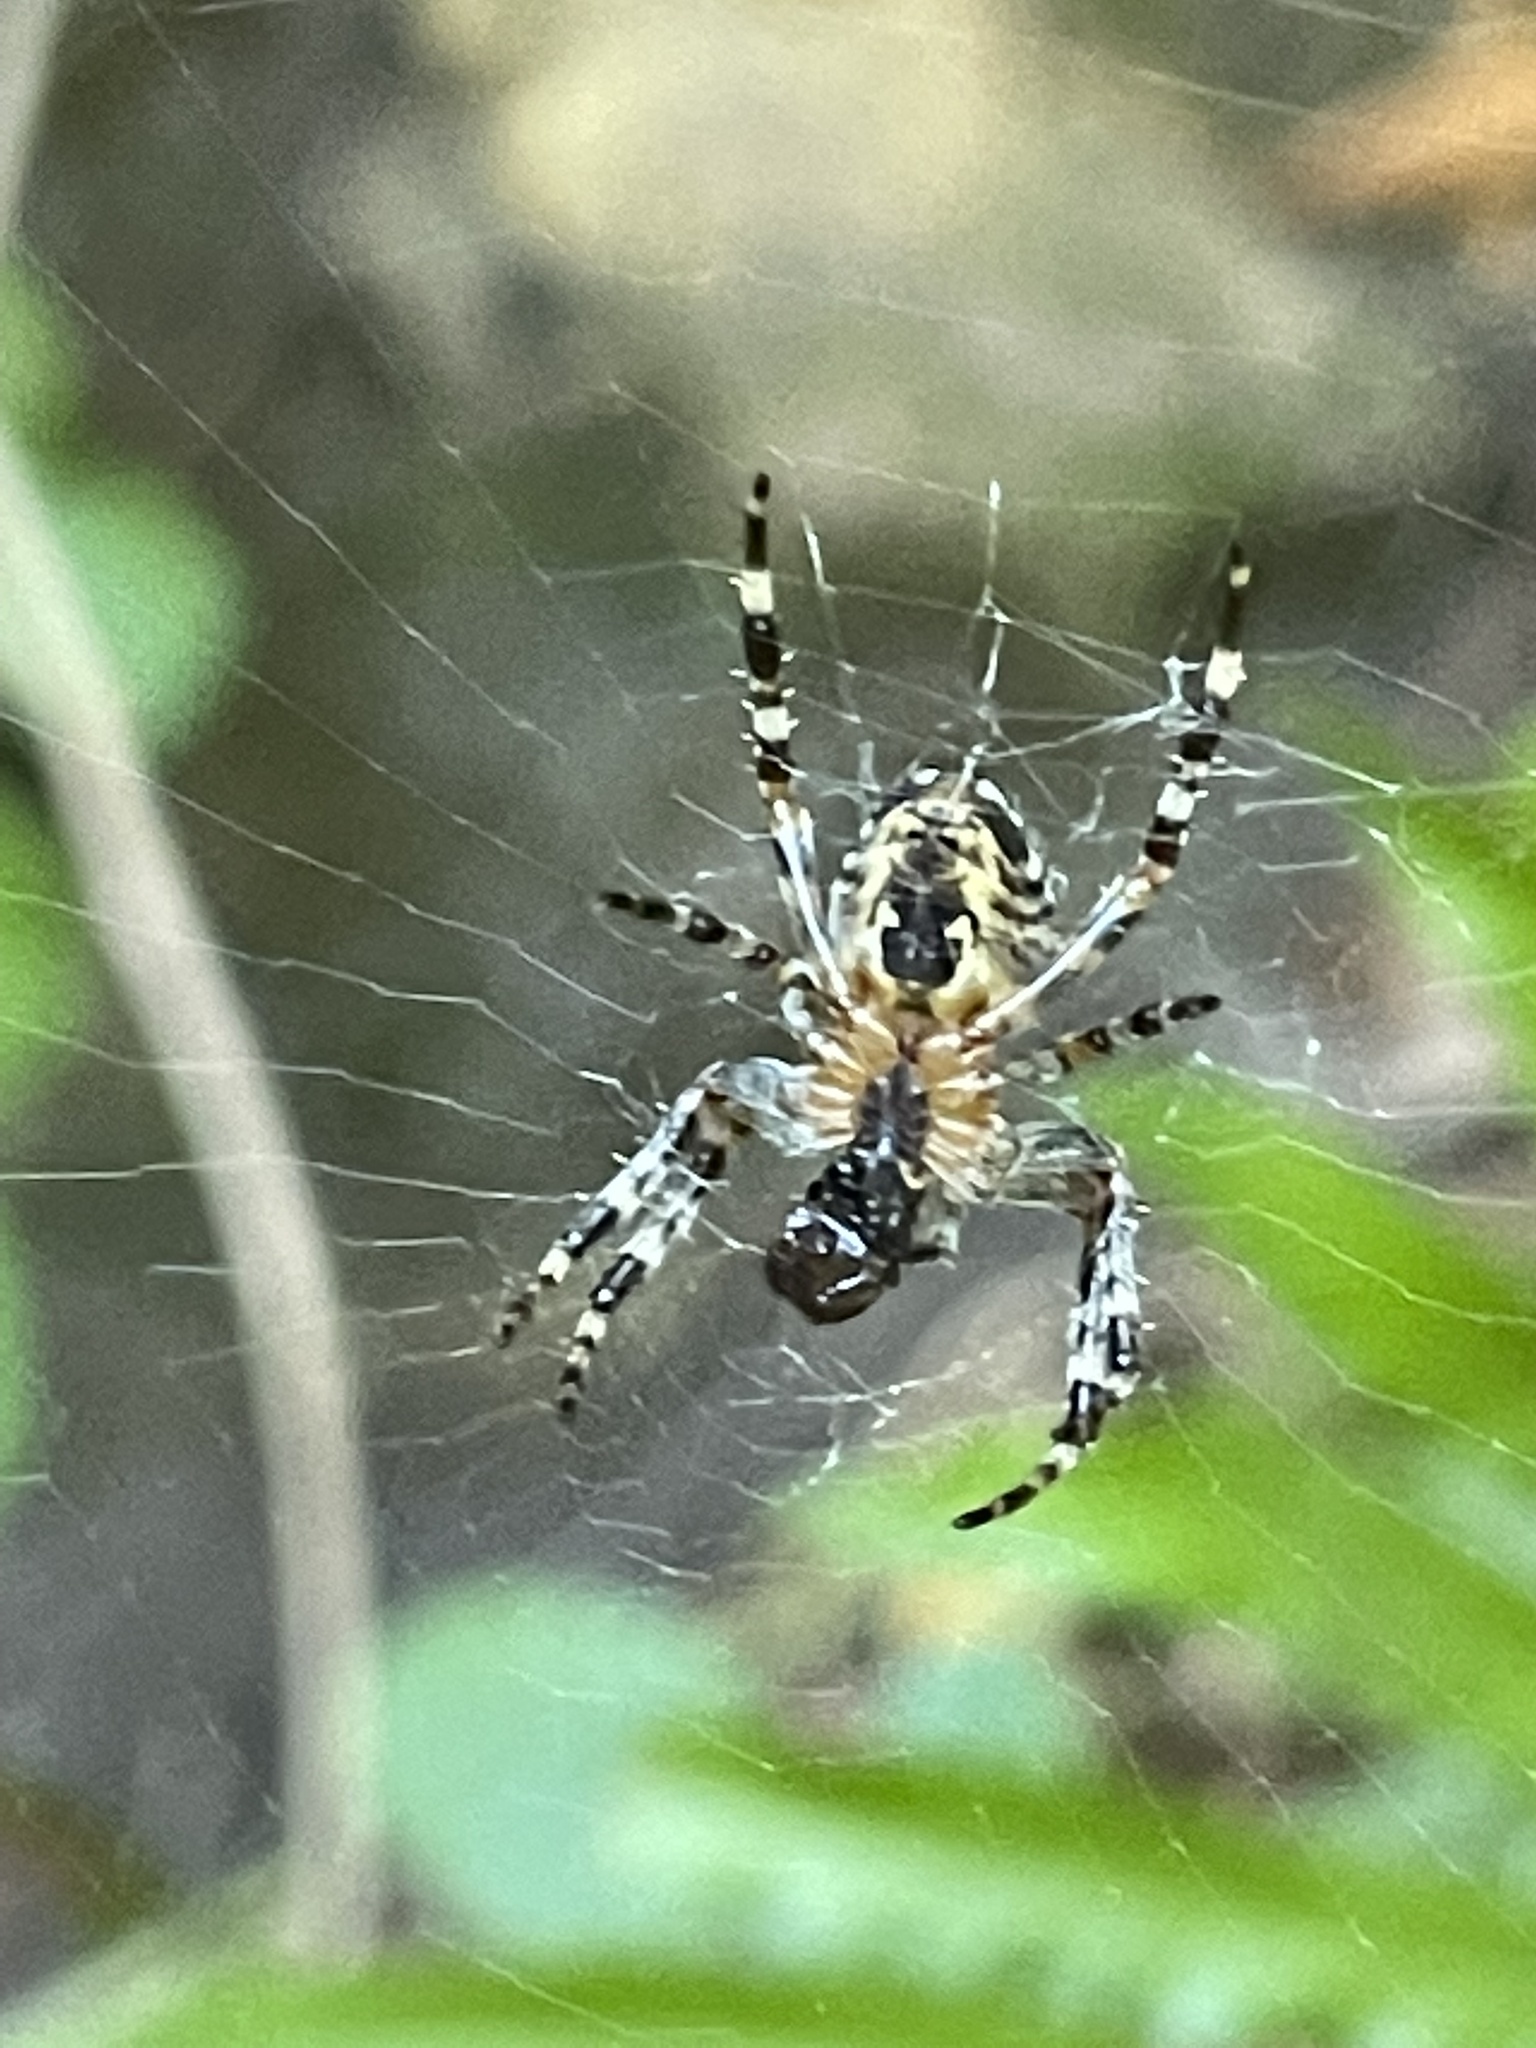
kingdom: Animalia
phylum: Arthropoda
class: Arachnida
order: Araneae
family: Araneidae
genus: Araneus
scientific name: Araneus diadematus
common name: Cross orbweaver
